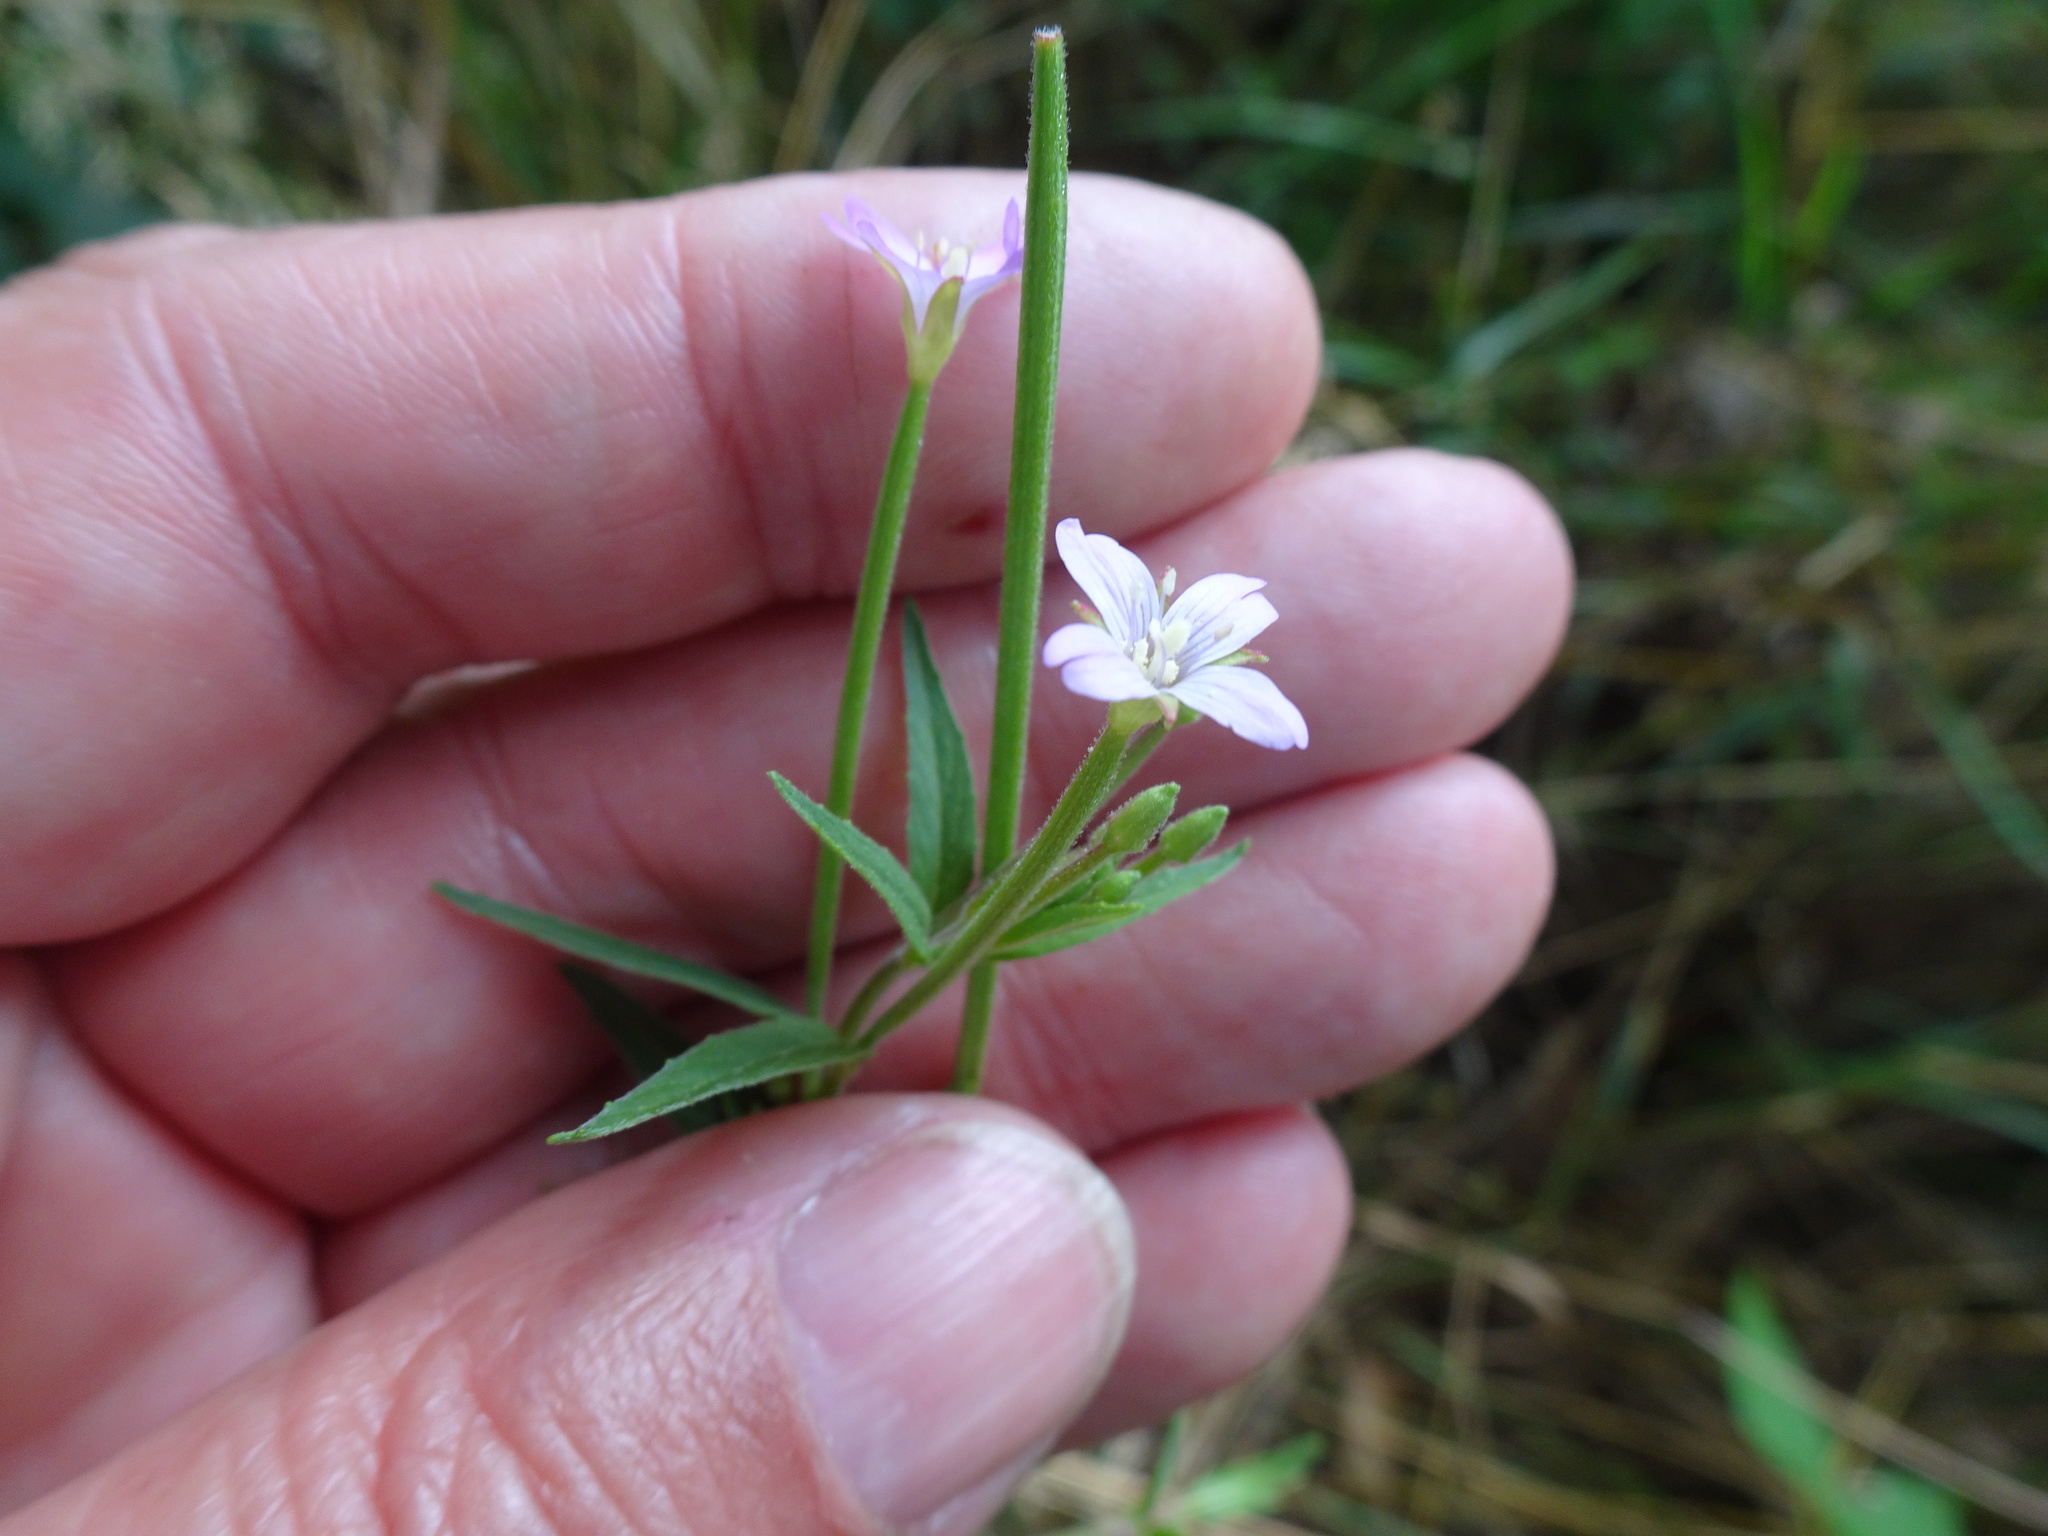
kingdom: Plantae
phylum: Tracheophyta
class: Magnoliopsida
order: Myrtales
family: Onagraceae
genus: Epilobium
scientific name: Epilobium ciliatum
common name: American willowherb
